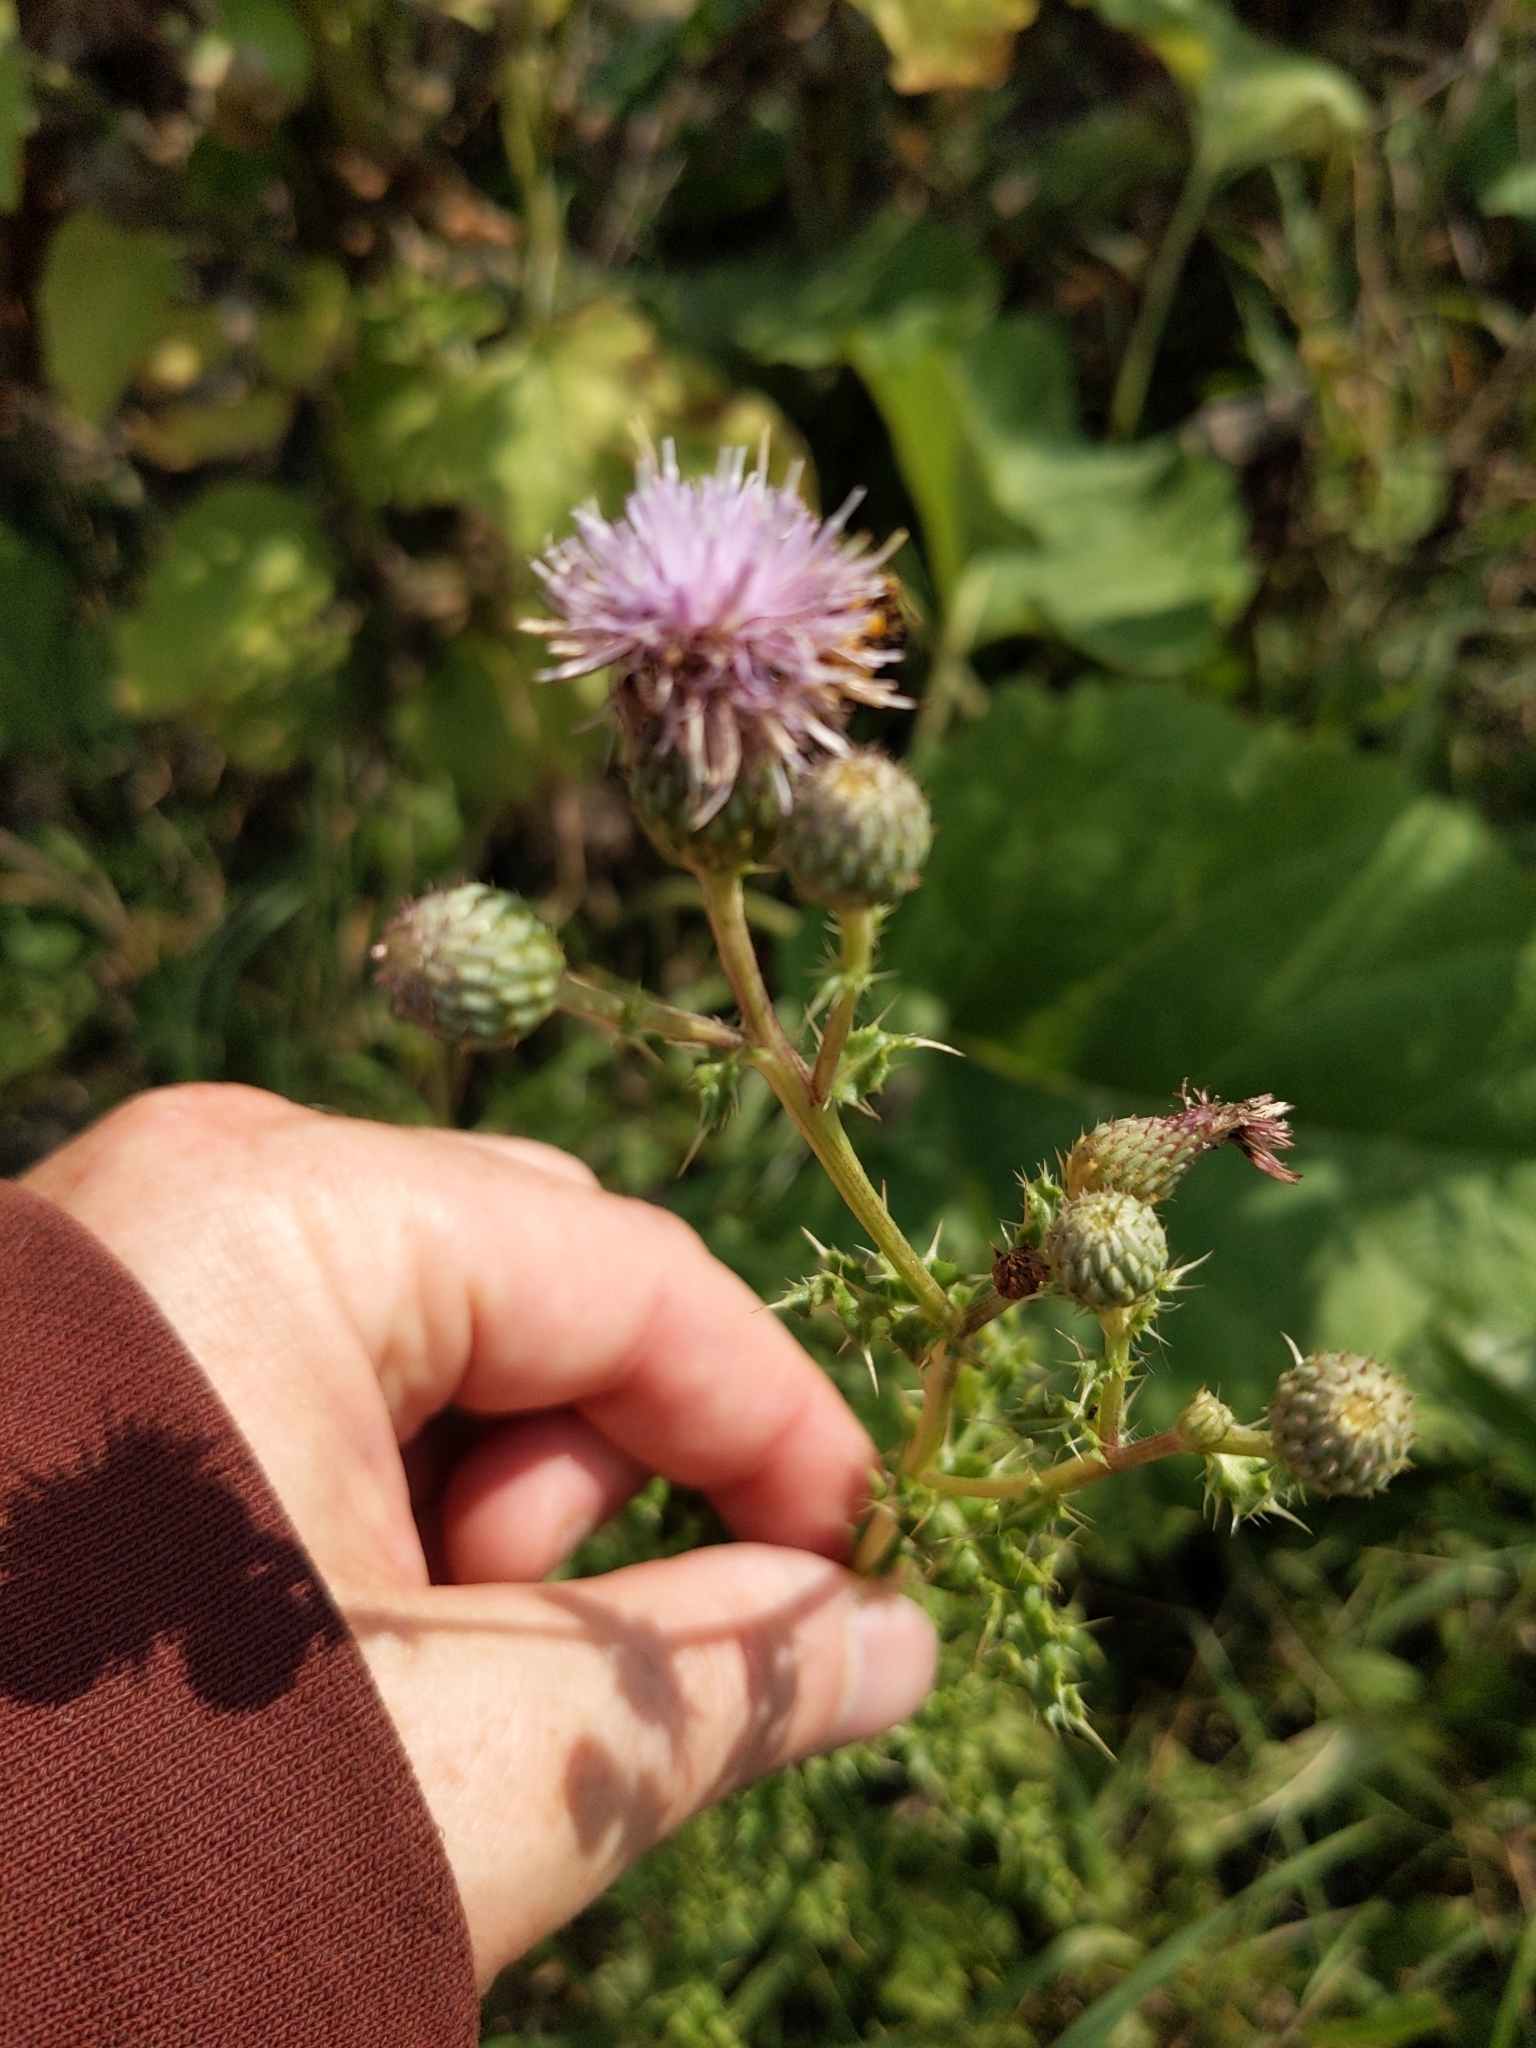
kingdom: Plantae
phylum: Tracheophyta
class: Magnoliopsida
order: Asterales
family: Asteraceae
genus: Cirsium
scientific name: Cirsium arvense
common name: Creeping thistle
